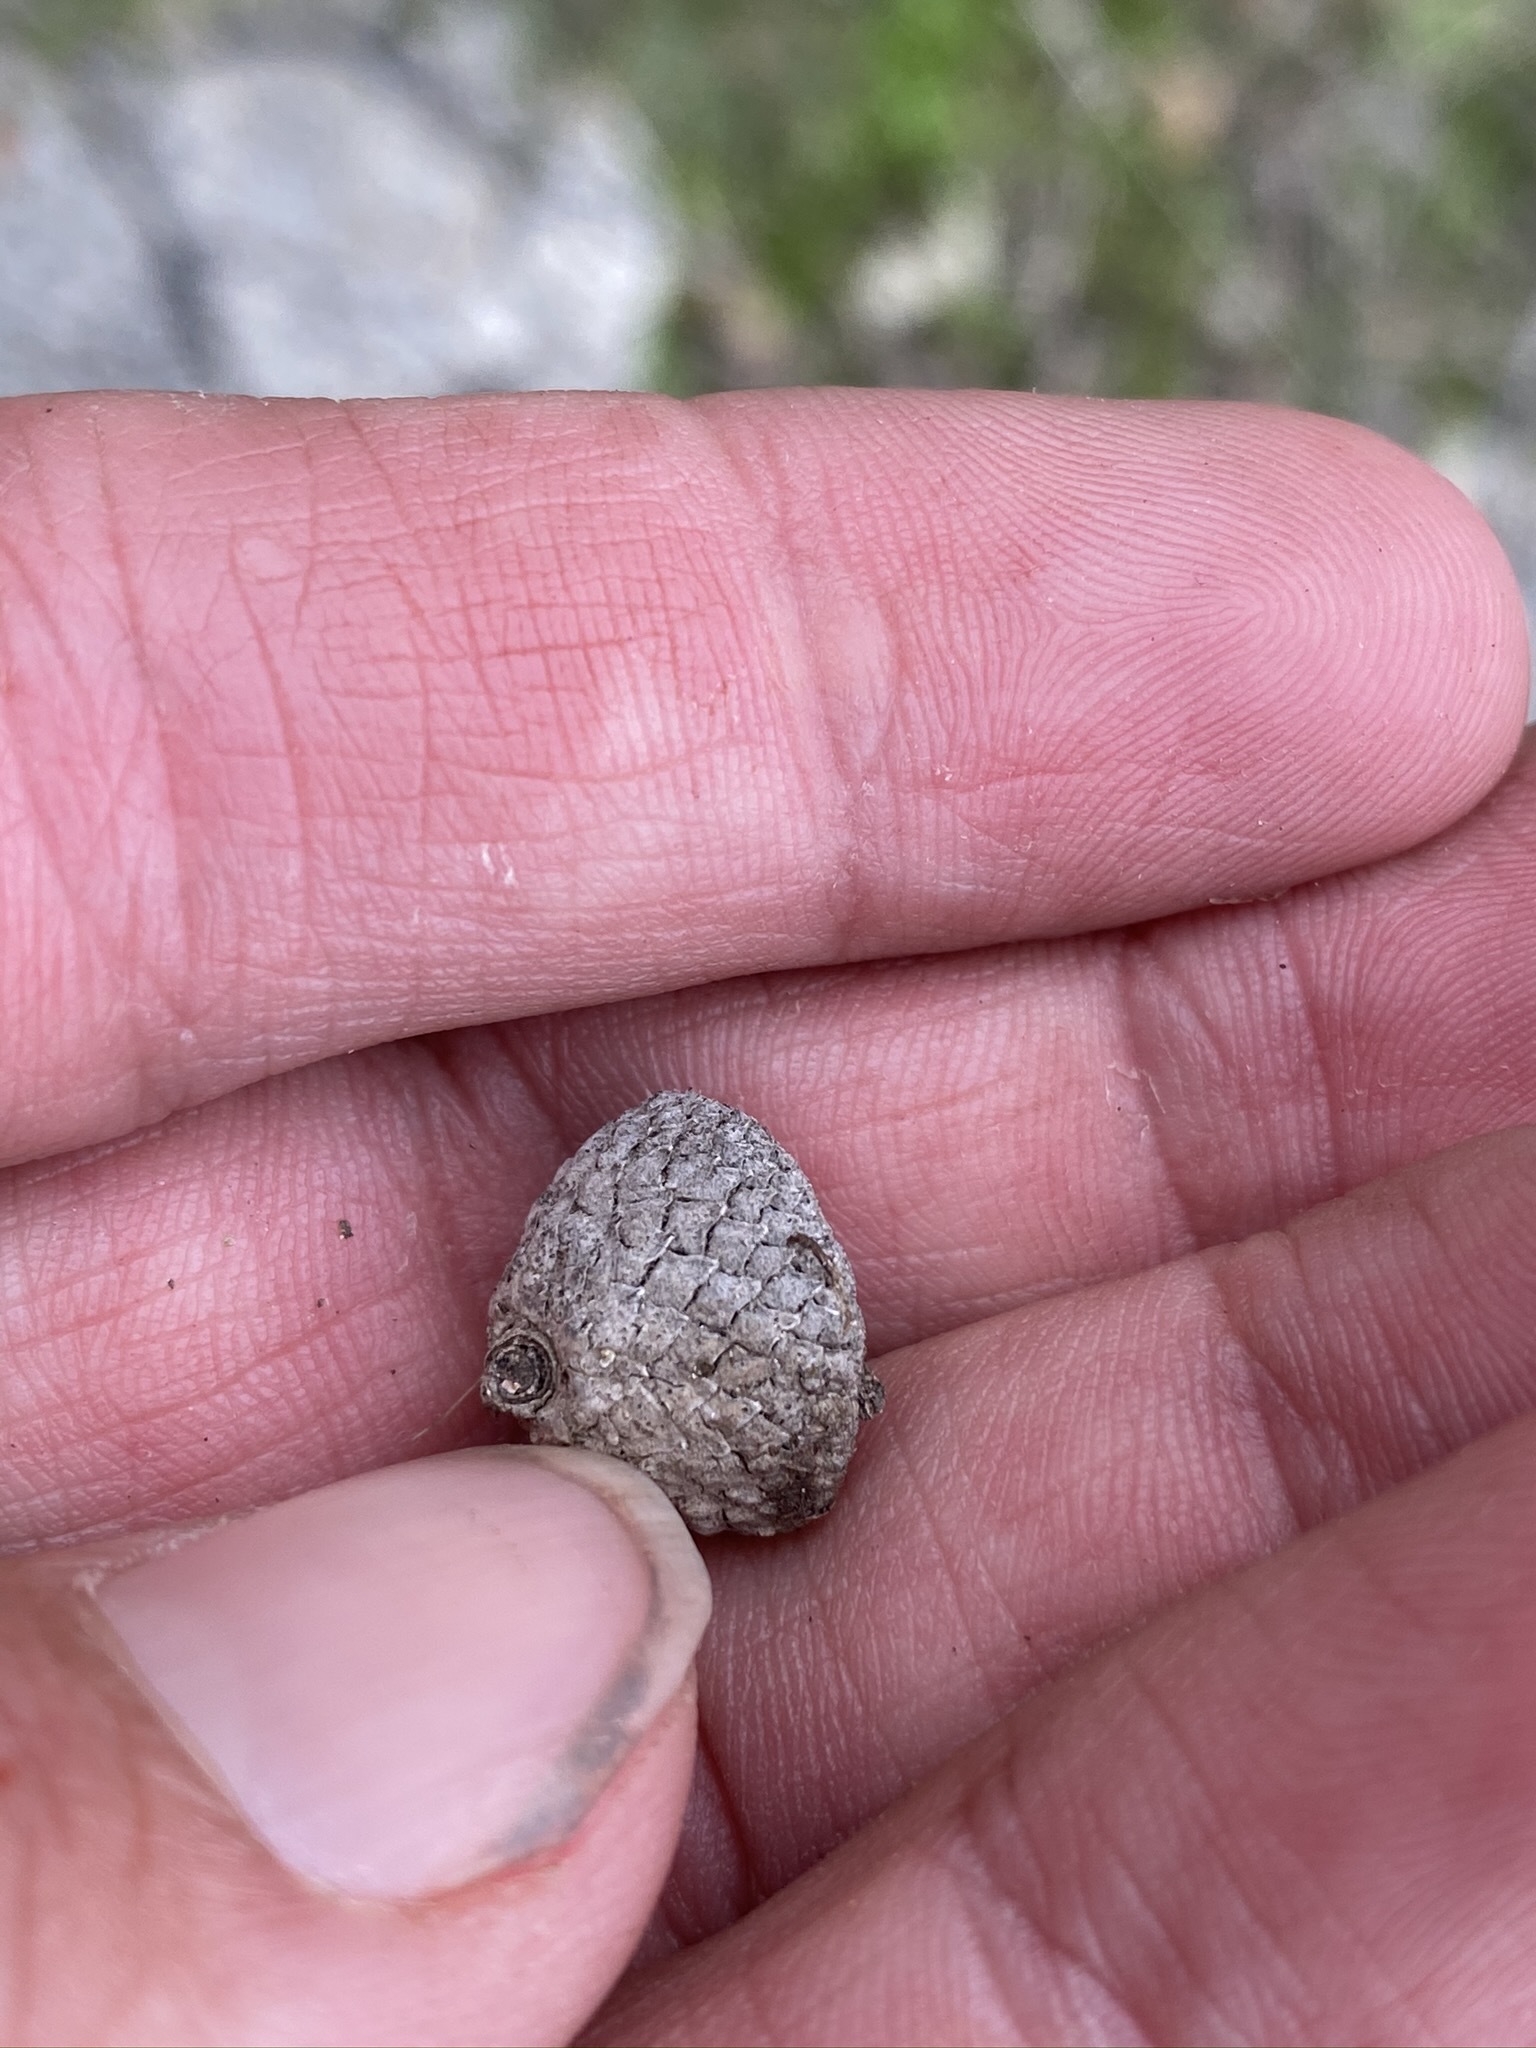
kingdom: Plantae
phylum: Tracheophyta
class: Magnoliopsida
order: Fagales
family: Fagaceae
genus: Quercus
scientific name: Quercus cornelius-mulleri
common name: Muller oak
